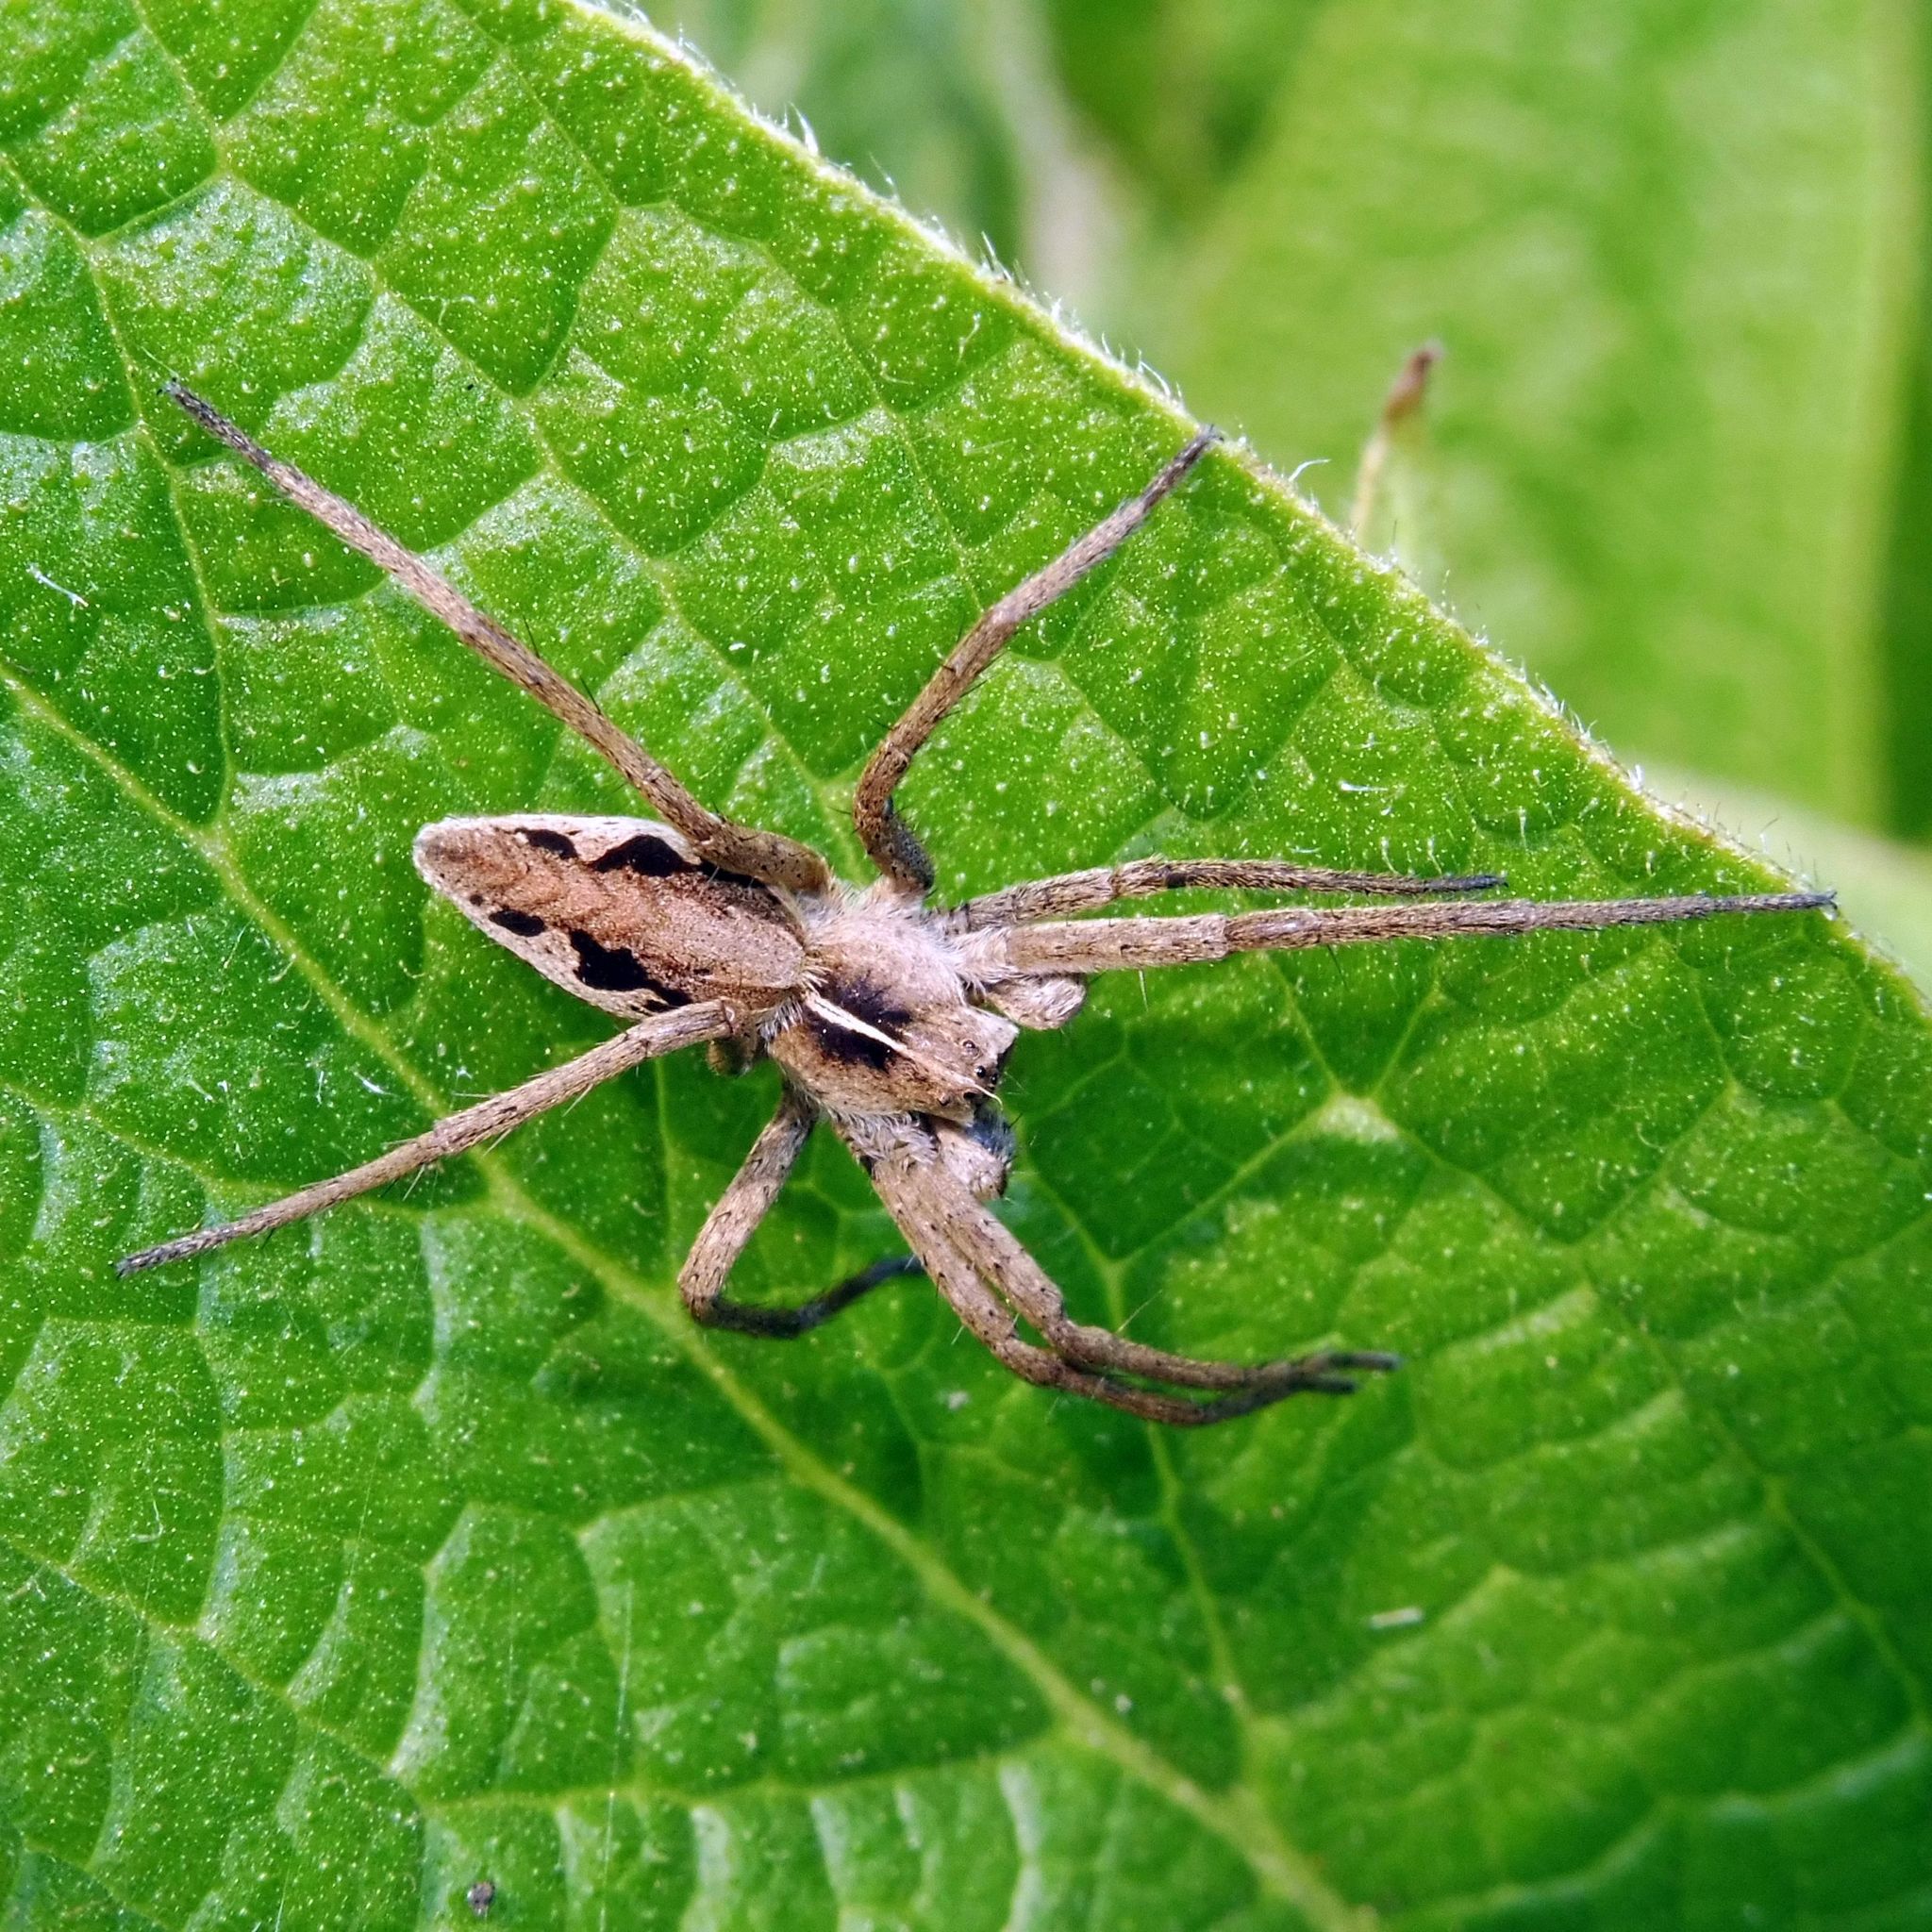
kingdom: Animalia
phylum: Arthropoda
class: Arachnida
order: Araneae
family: Pisauridae
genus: Pisaura
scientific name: Pisaura mirabilis
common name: Tent spider
